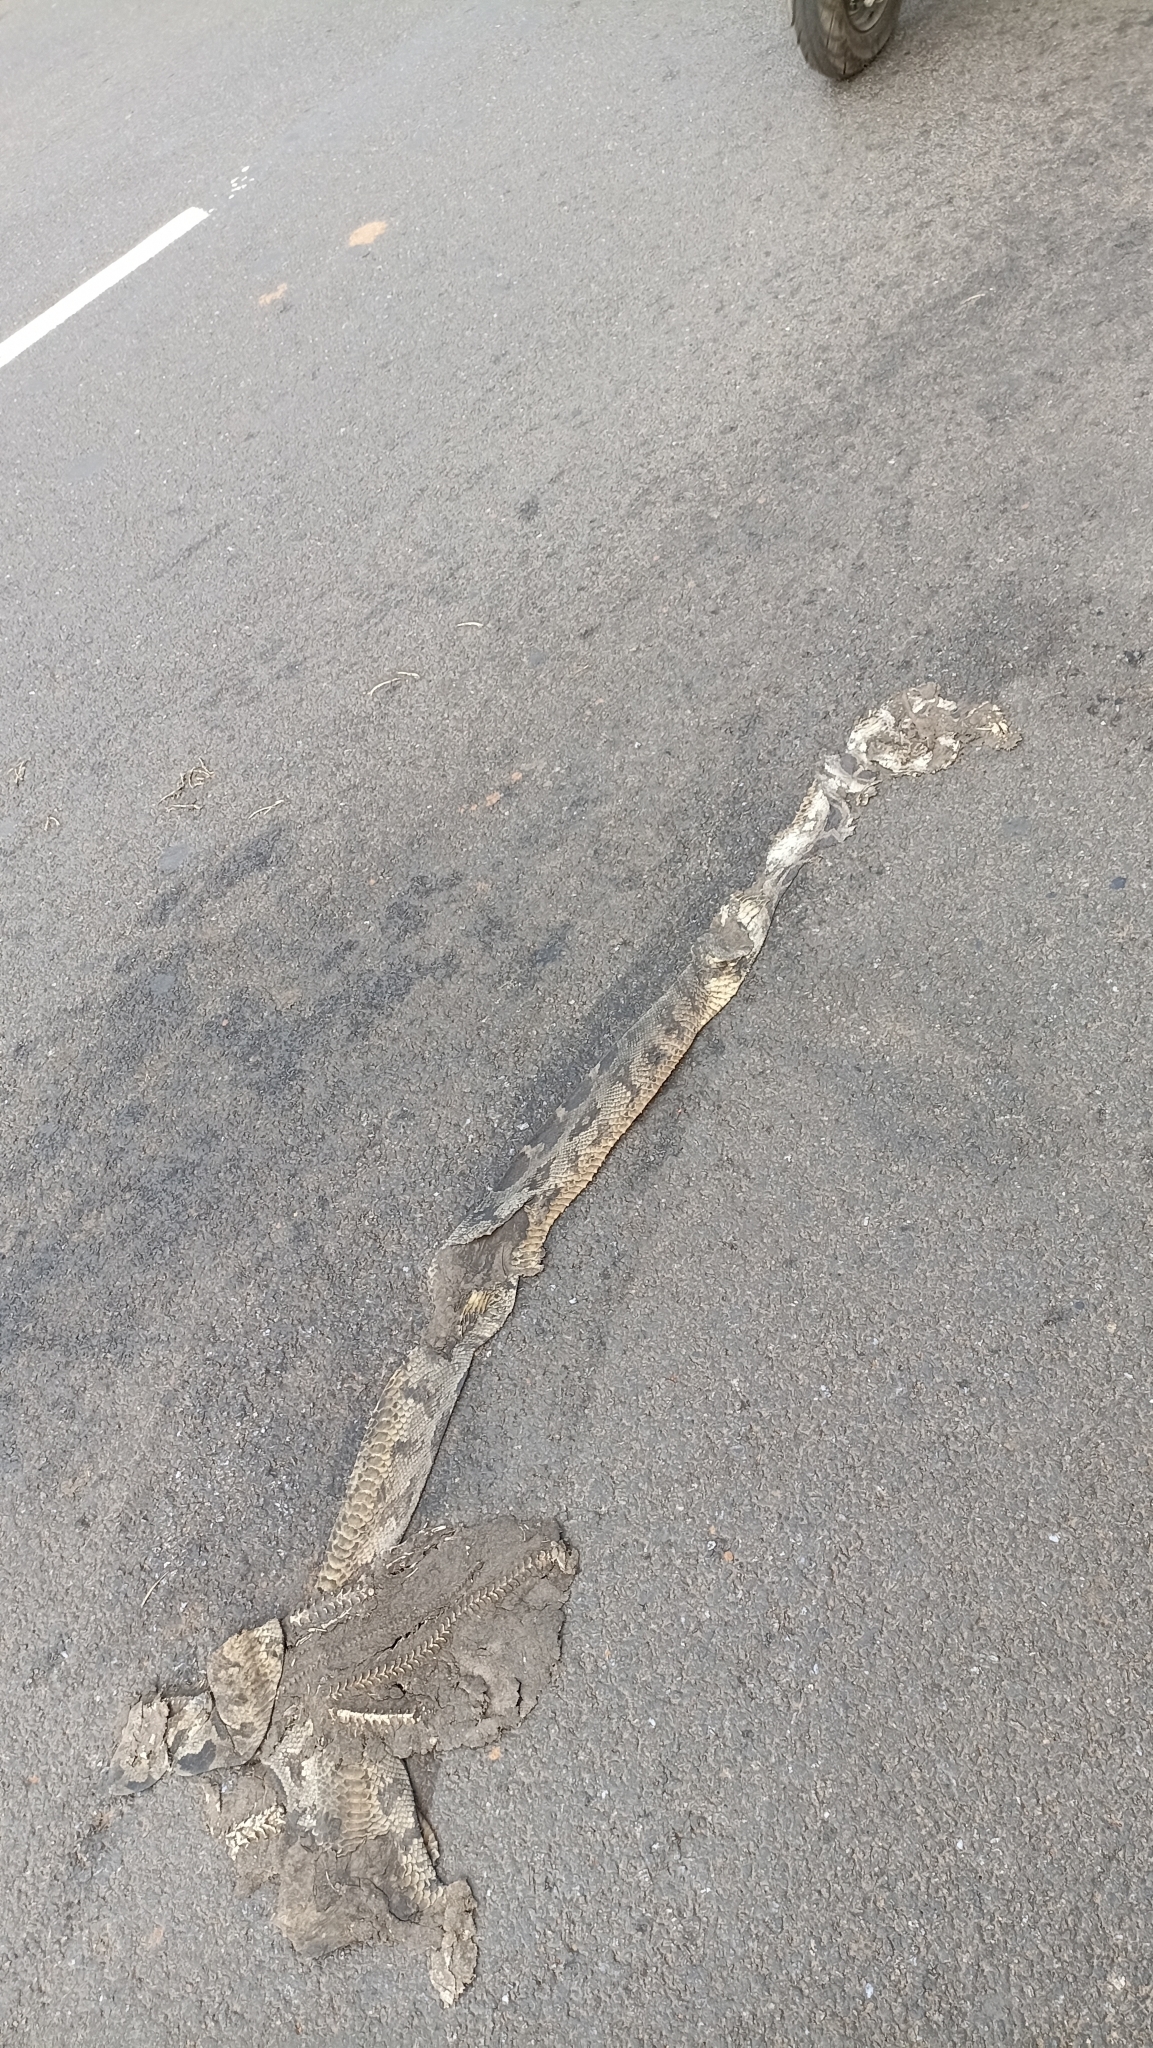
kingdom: Animalia
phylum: Chordata
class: Squamata
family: Pythonidae
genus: Python
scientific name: Python molurus
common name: Indian rock python
